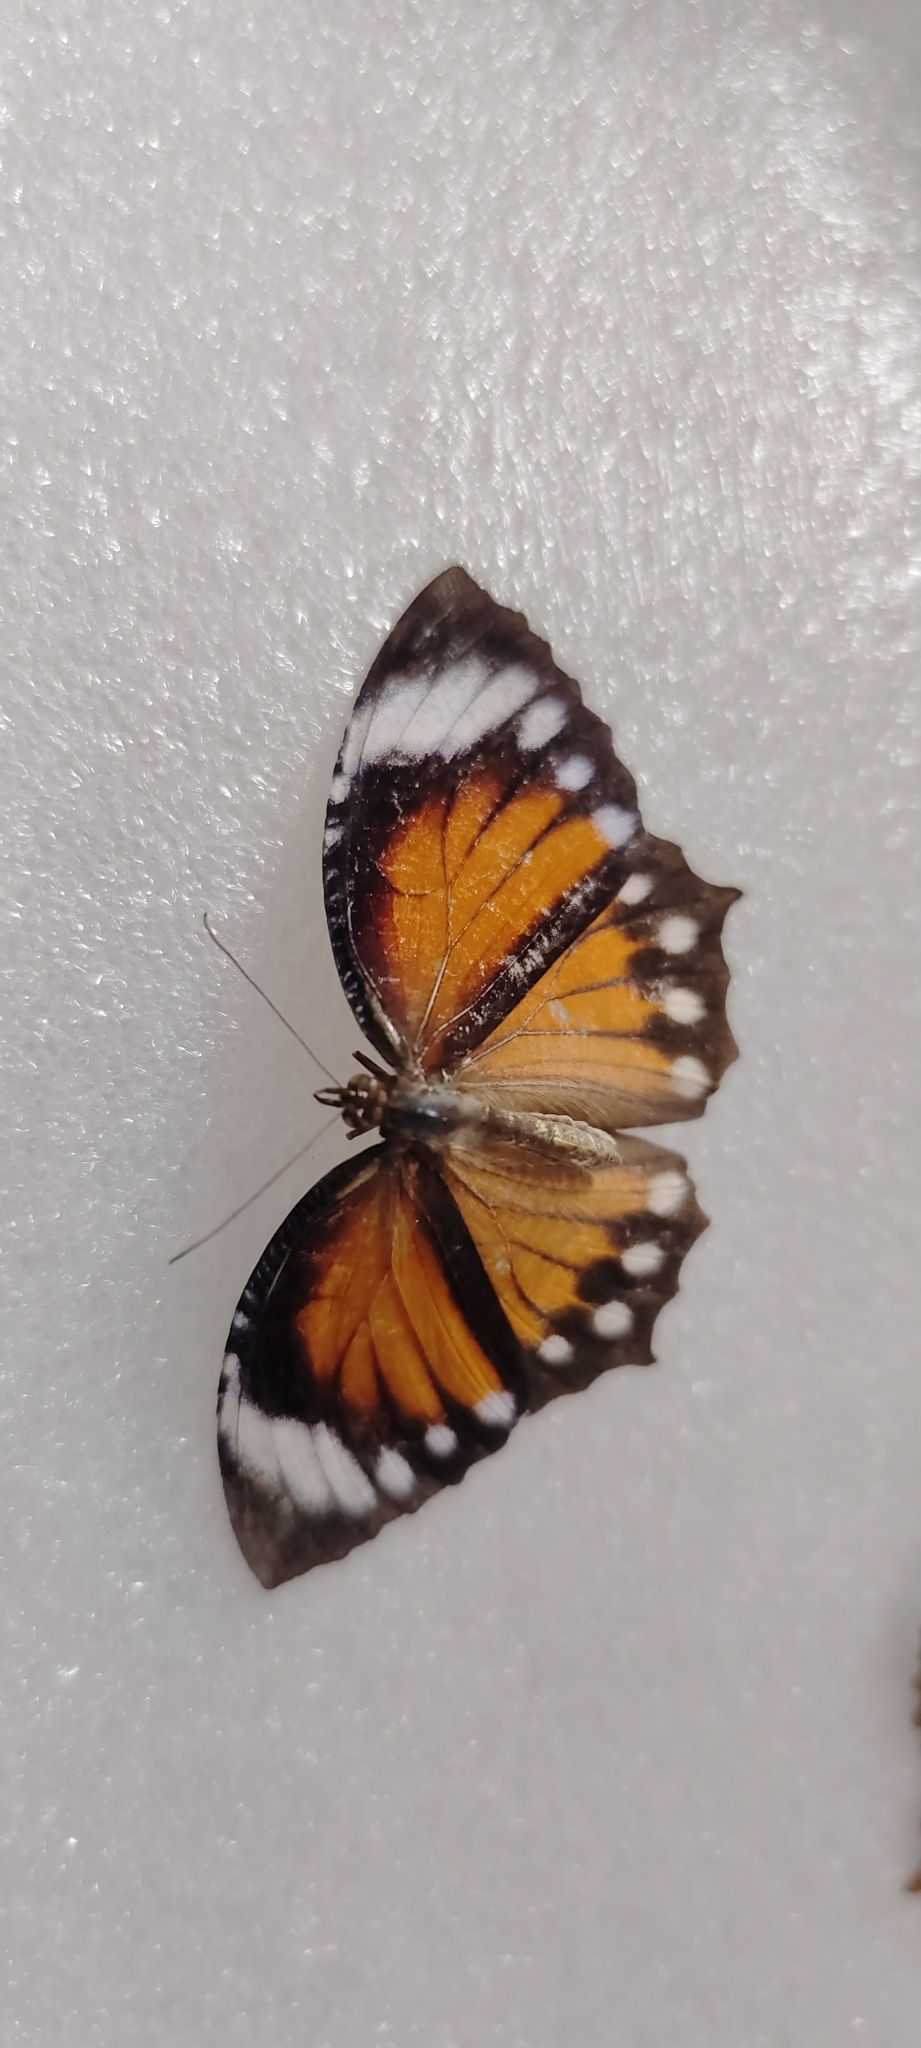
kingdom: Animalia
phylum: Arthropoda
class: Insecta
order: Lepidoptera
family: Nymphalidae
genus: Elymnias
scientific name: Elymnias hypermnestra
